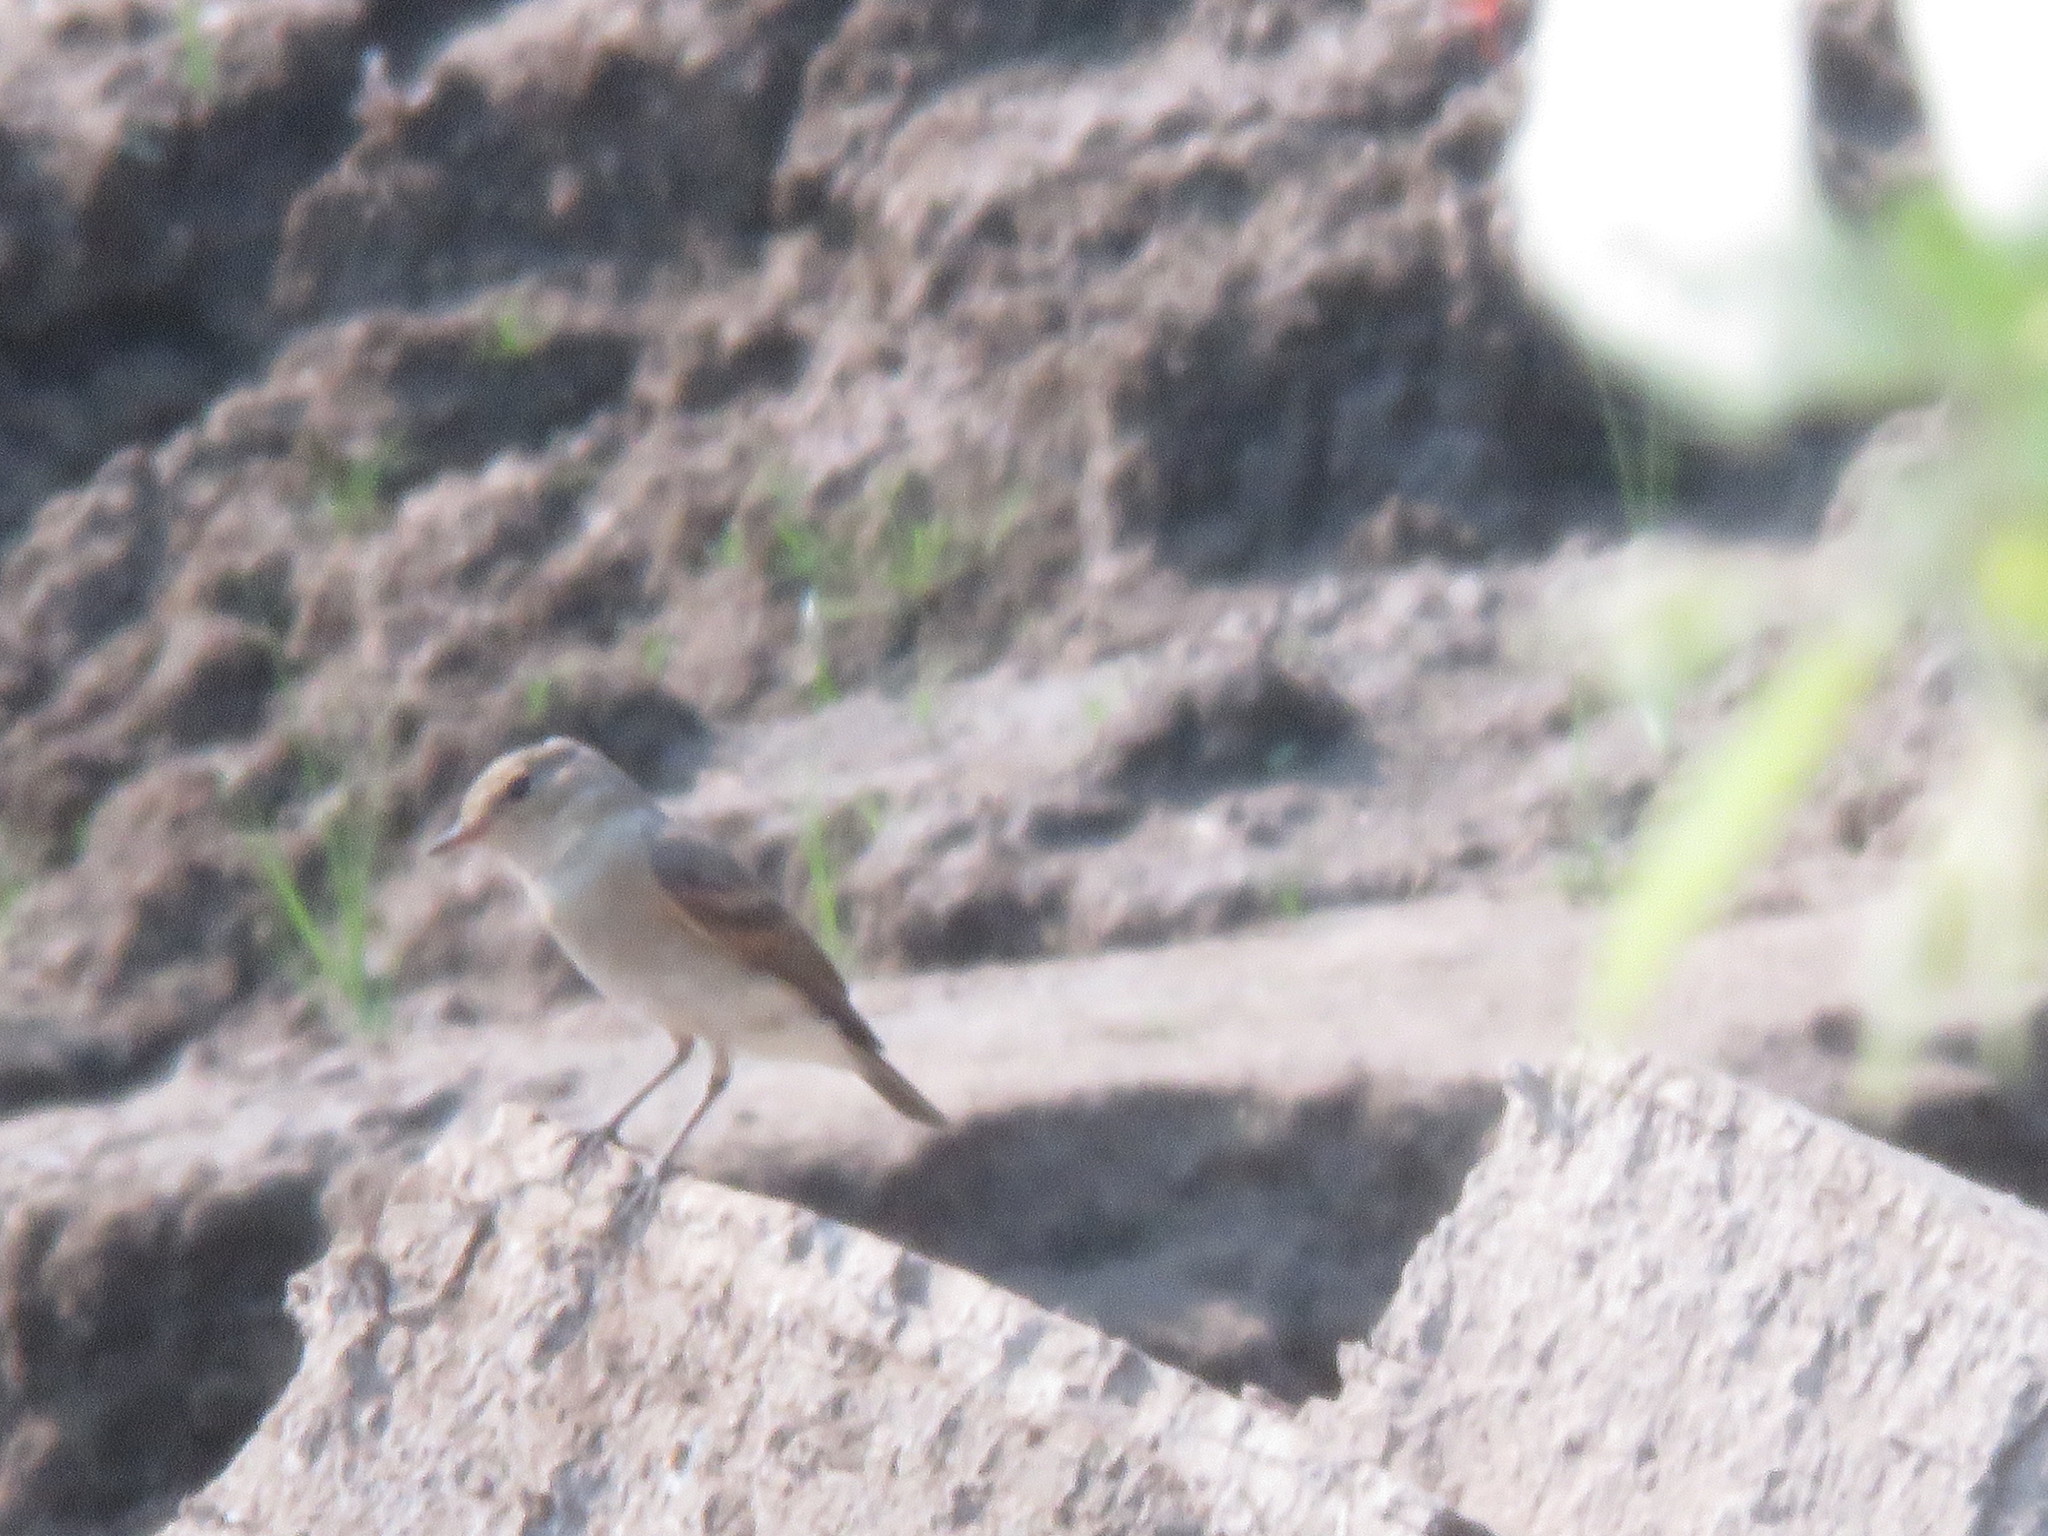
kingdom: Animalia
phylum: Chordata
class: Aves
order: Passeriformes
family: Tyrannidae
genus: Muscisaxicola
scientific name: Muscisaxicola fluviatilis
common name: Little ground tyrant
